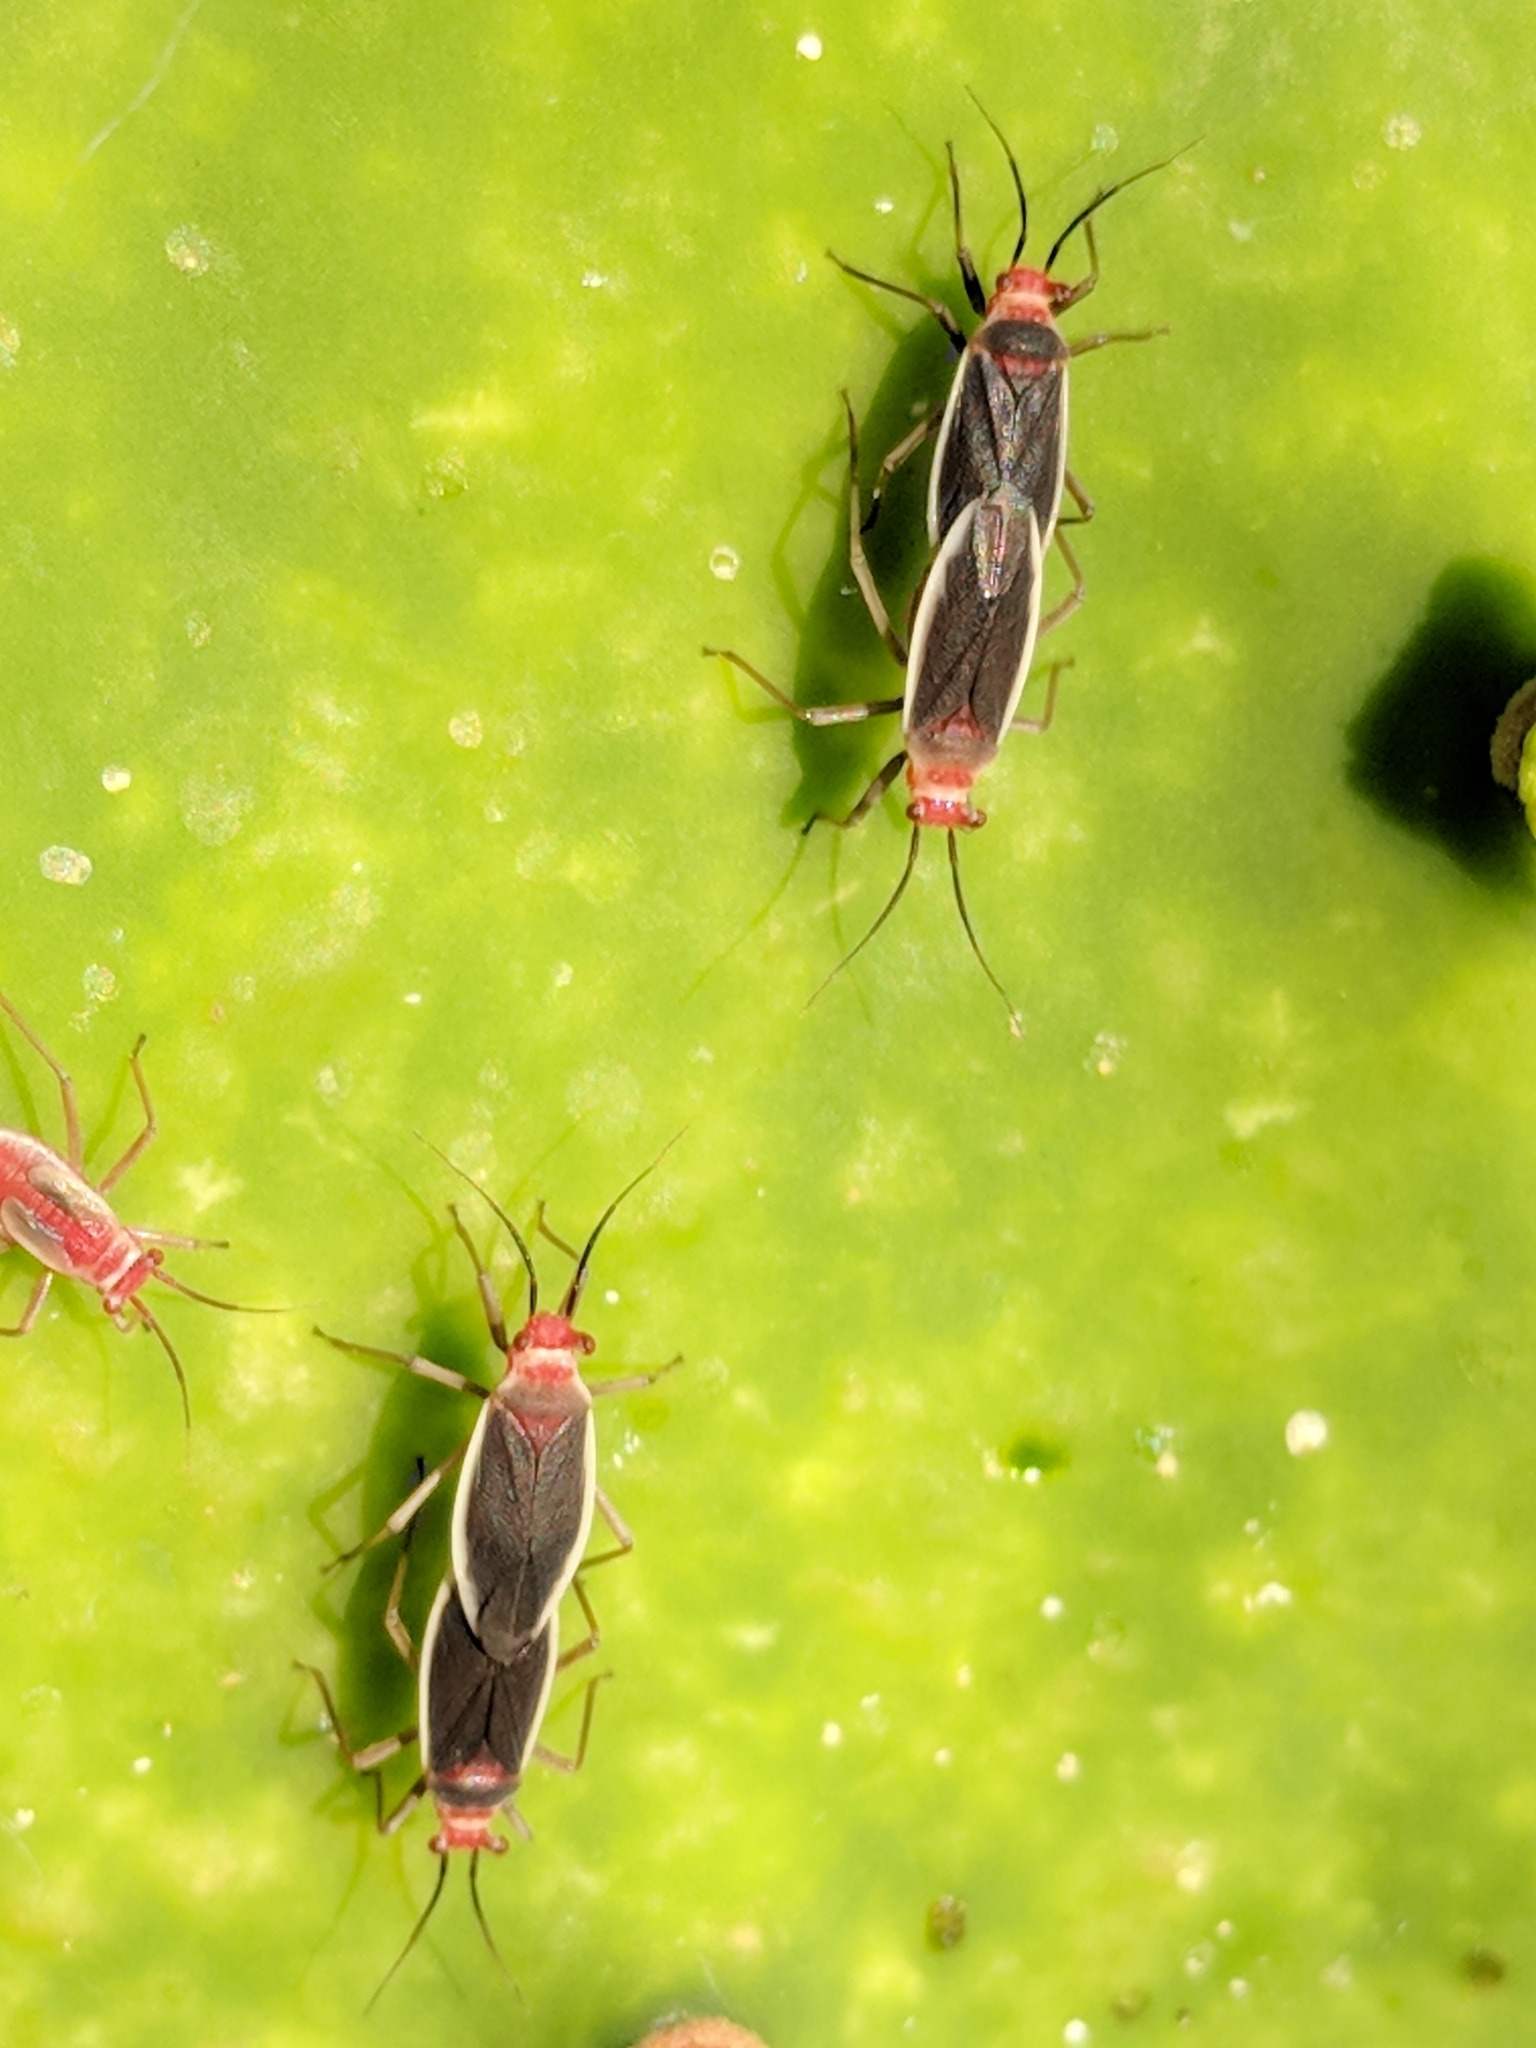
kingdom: Animalia
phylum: Arthropoda
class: Insecta
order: Hemiptera
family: Miridae
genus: Hesperolabops
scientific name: Hesperolabops gelastops
